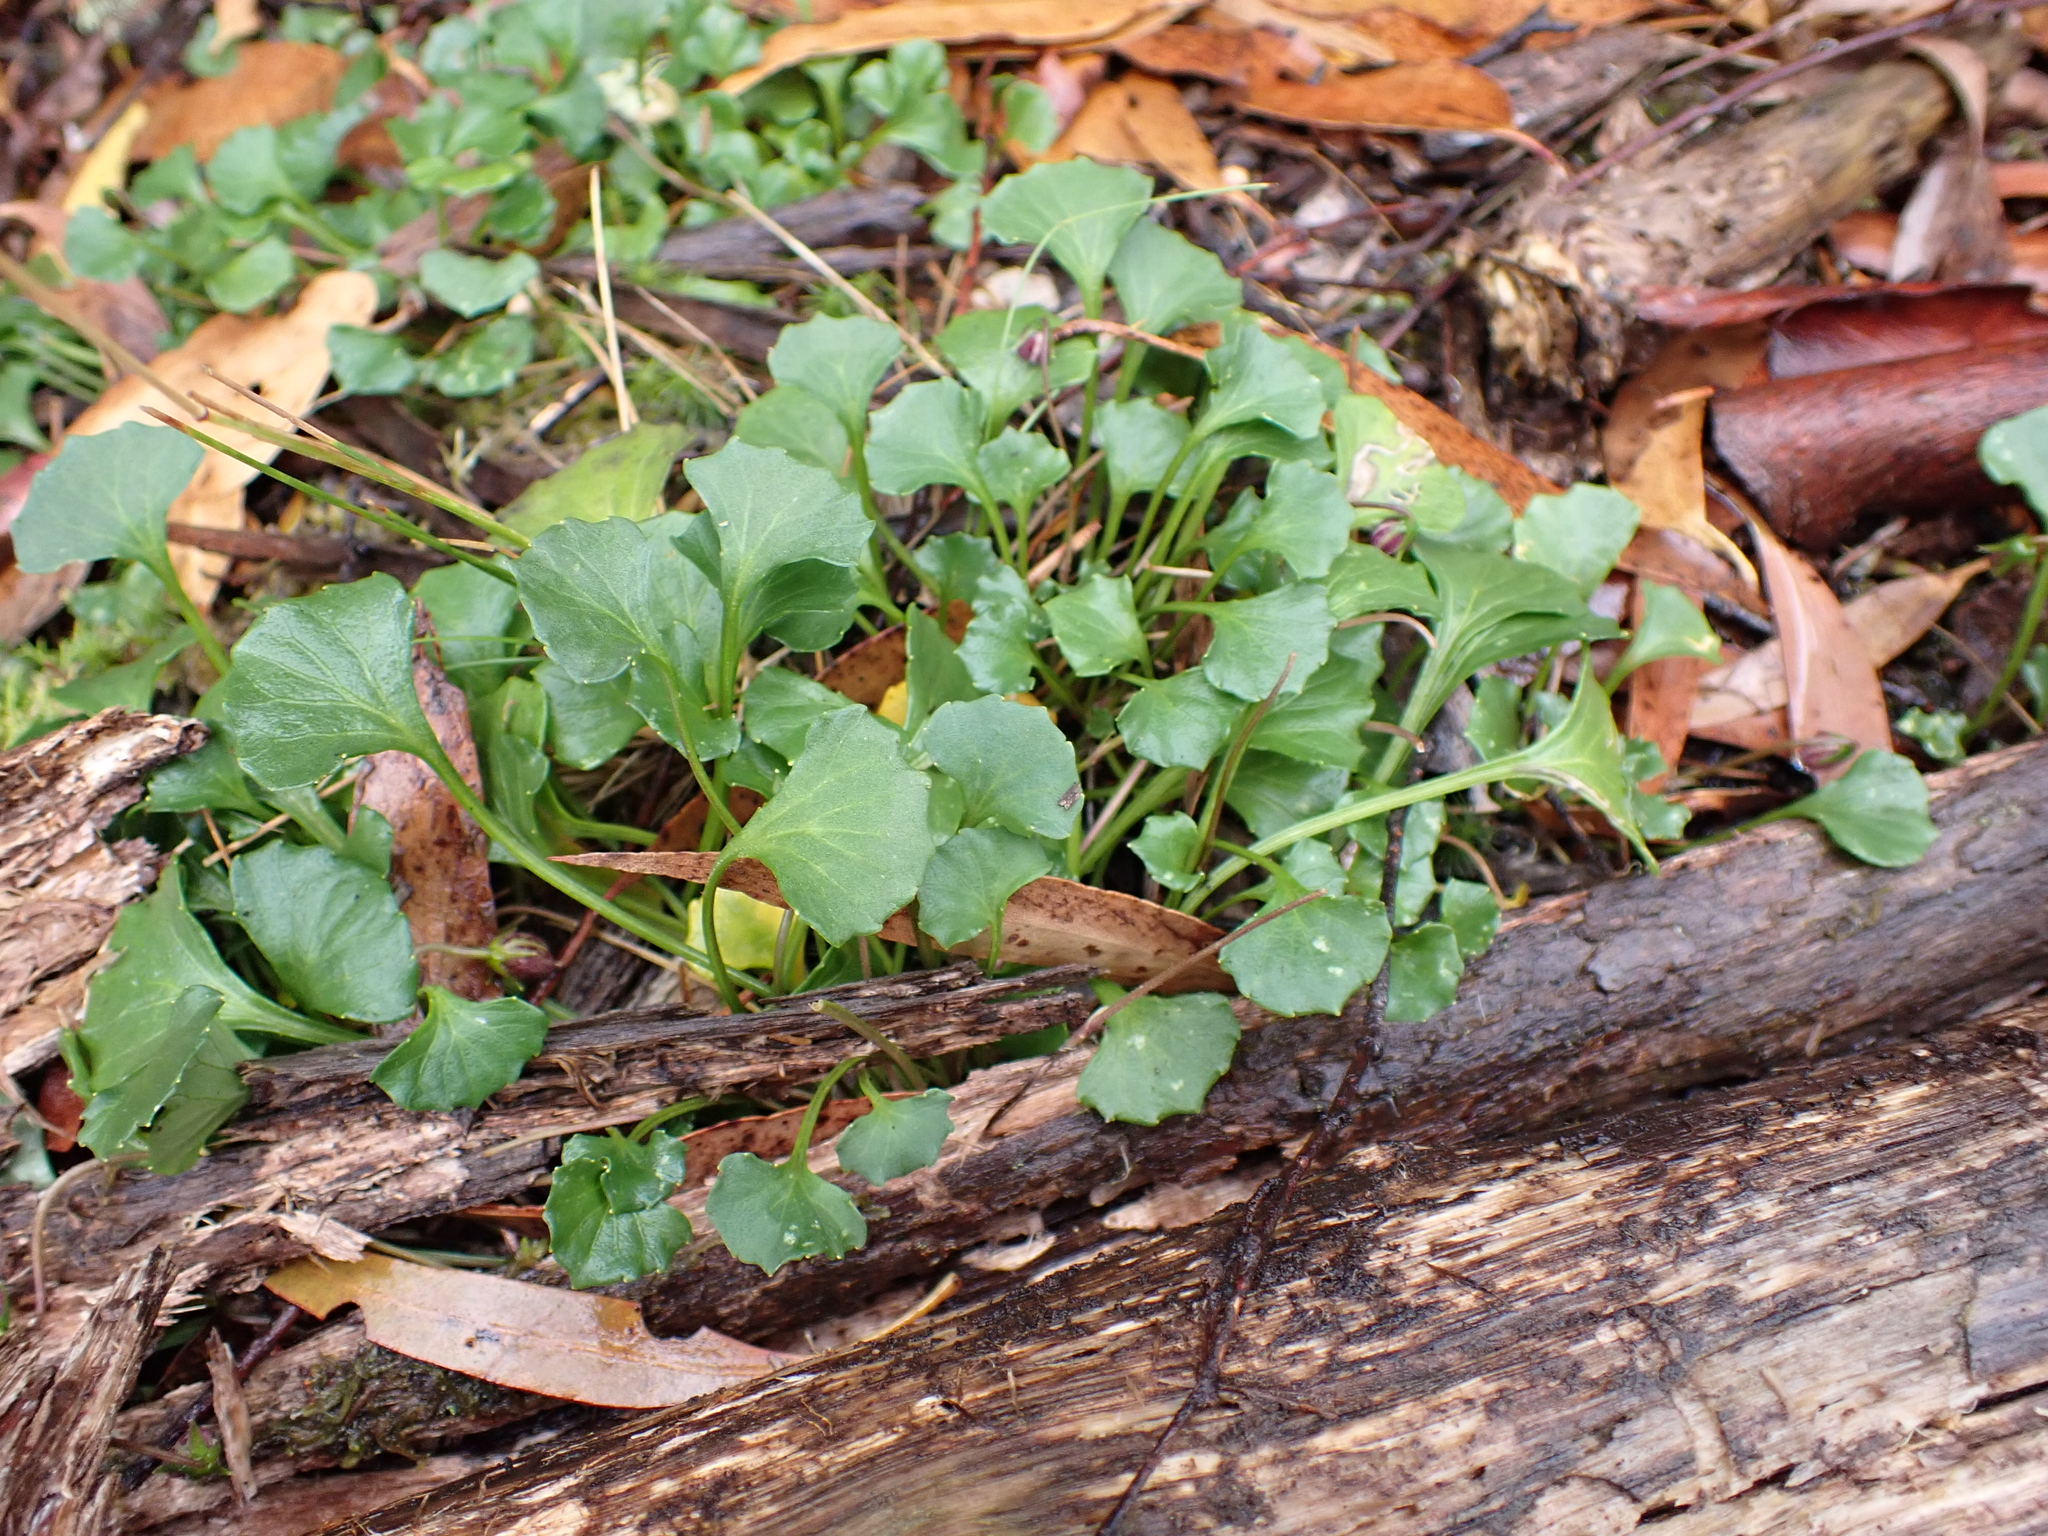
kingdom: Plantae
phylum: Tracheophyta
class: Magnoliopsida
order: Malpighiales
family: Violaceae
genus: Viola
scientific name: Viola hederacea
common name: Australian violet
